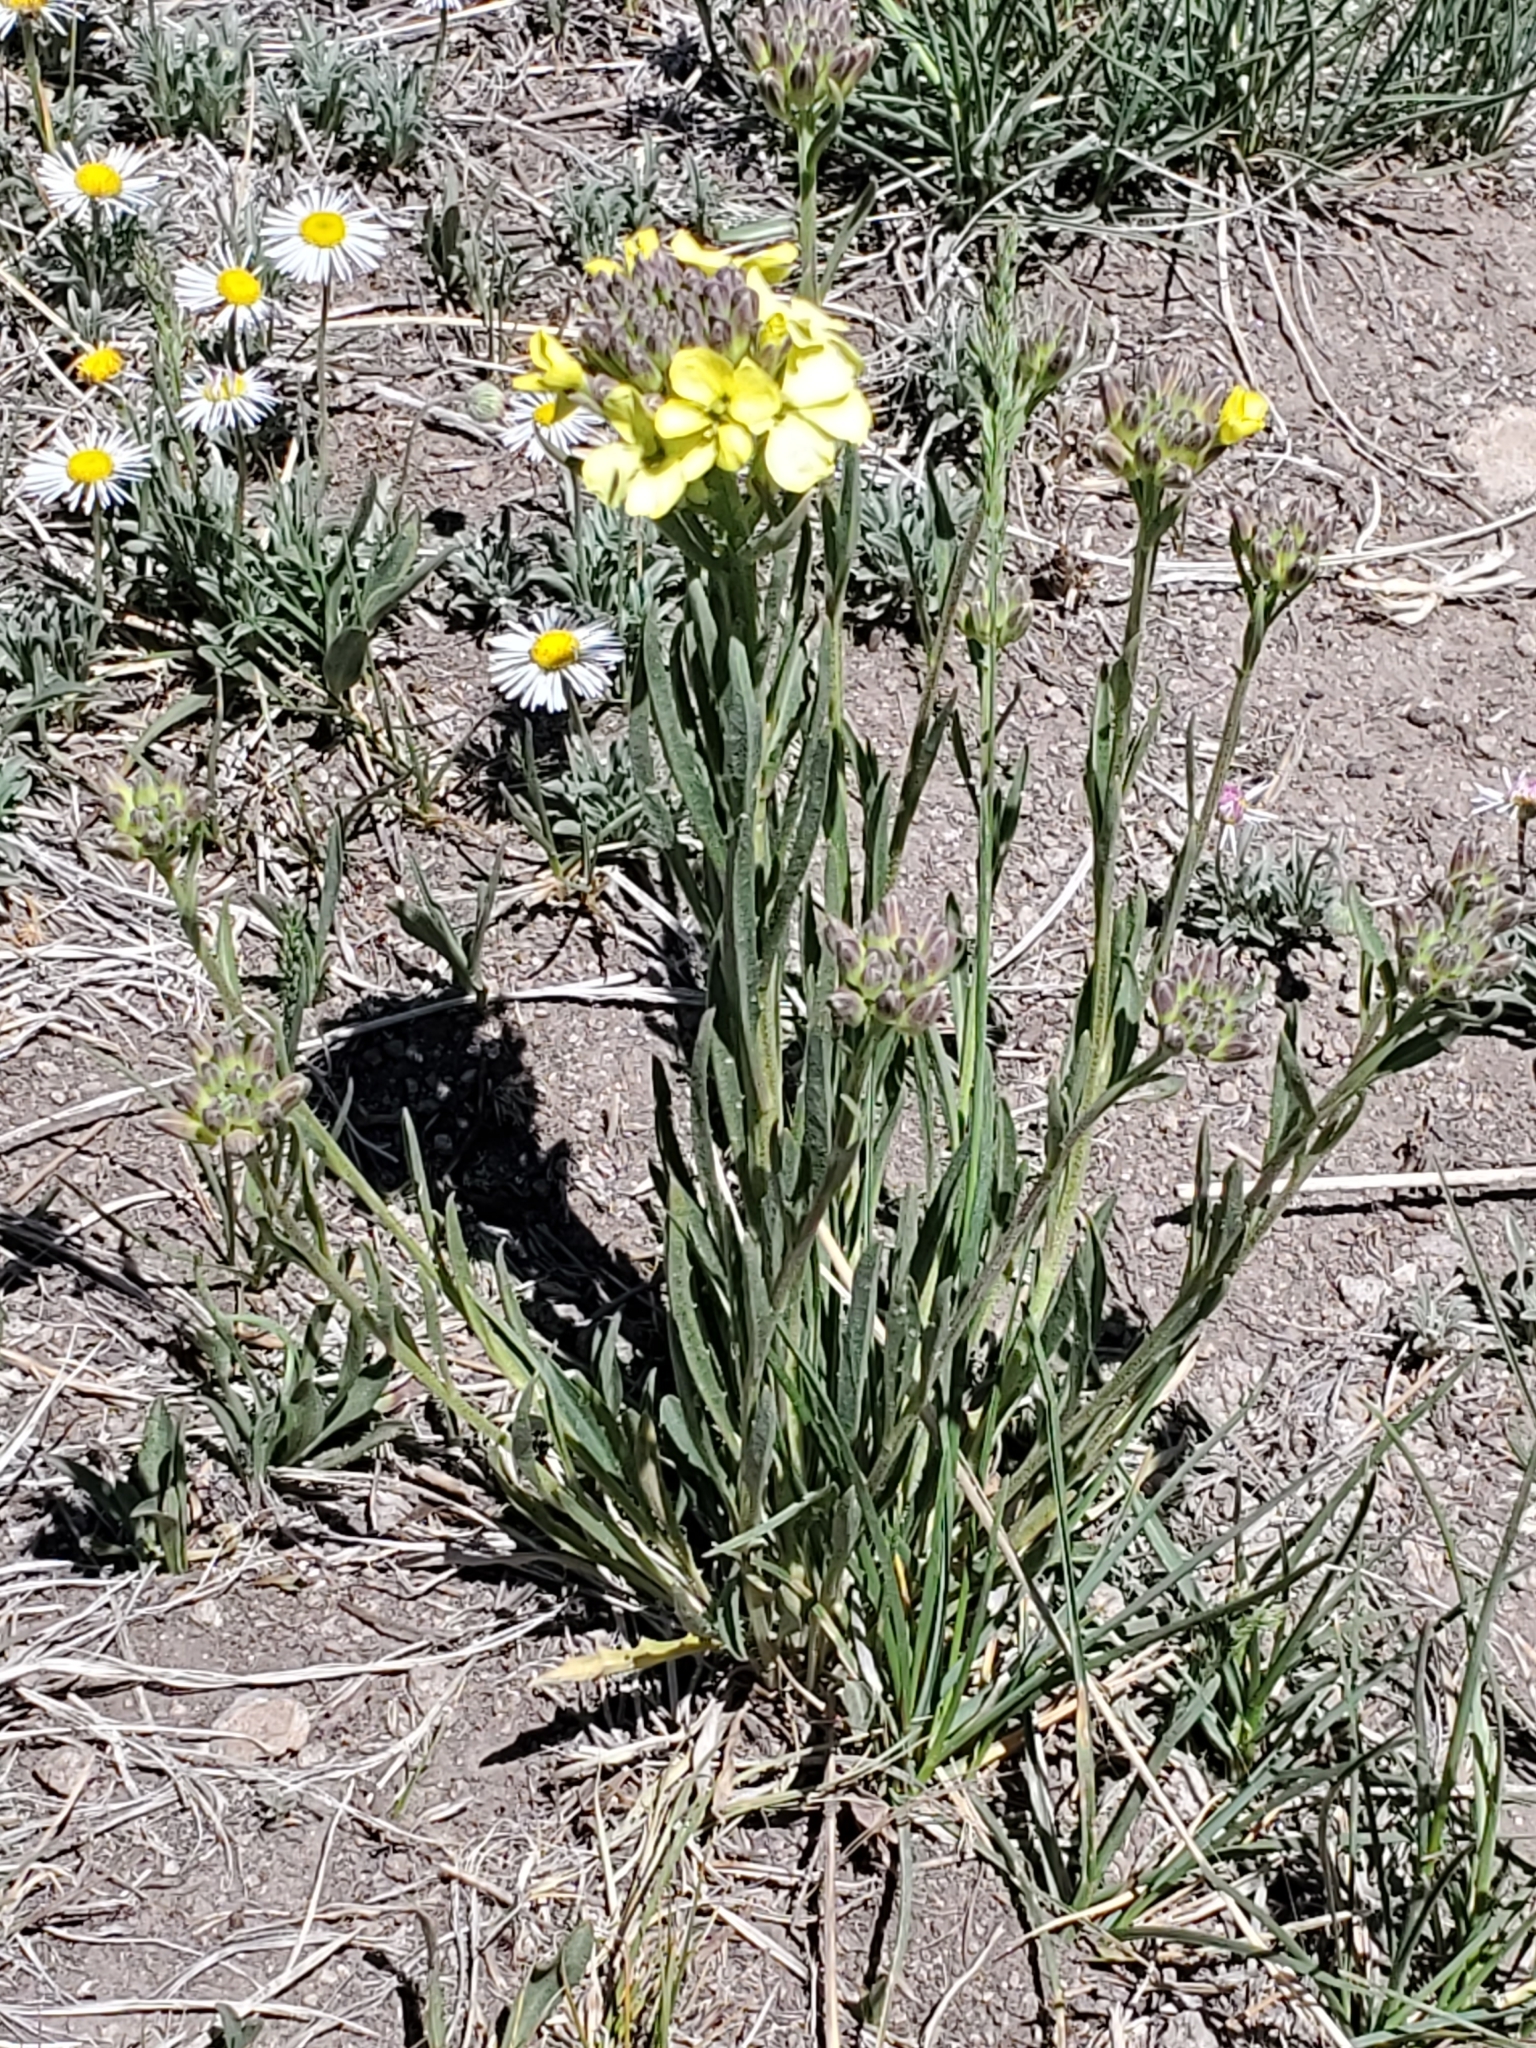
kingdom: Plantae
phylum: Tracheophyta
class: Magnoliopsida
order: Brassicales
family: Brassicaceae
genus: Erysimum
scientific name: Erysimum capitatum
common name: Western wallflower
